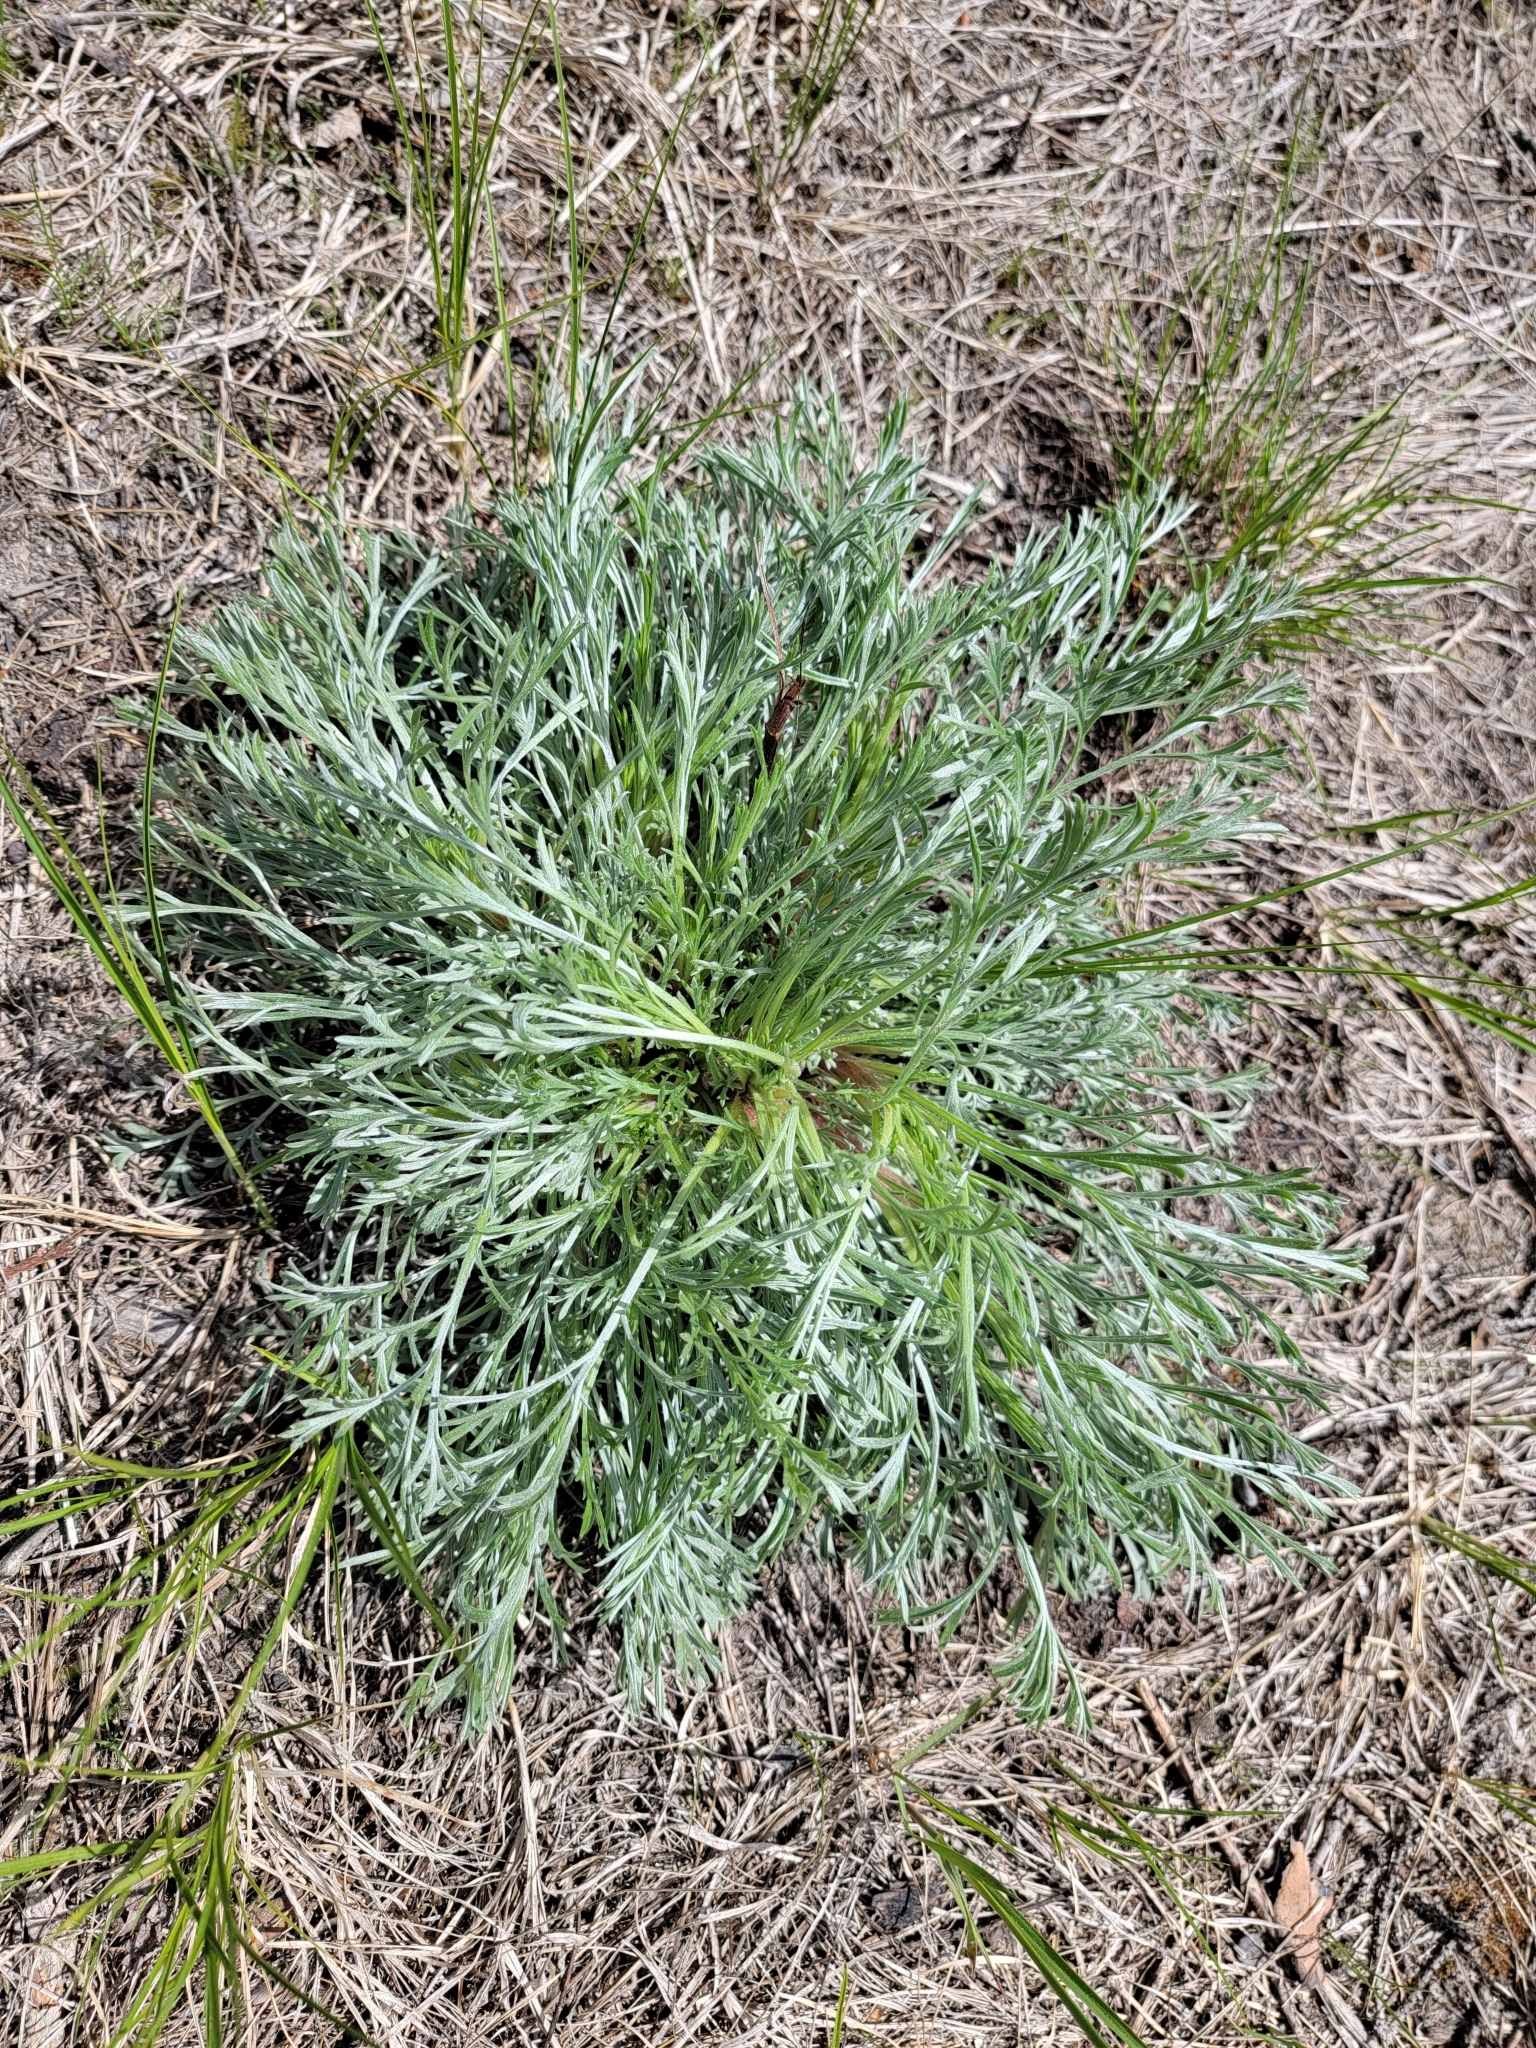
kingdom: Plantae
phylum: Tracheophyta
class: Magnoliopsida
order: Asterales
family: Asteraceae
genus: Artemisia
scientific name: Artemisia campestris
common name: Field wormwood
